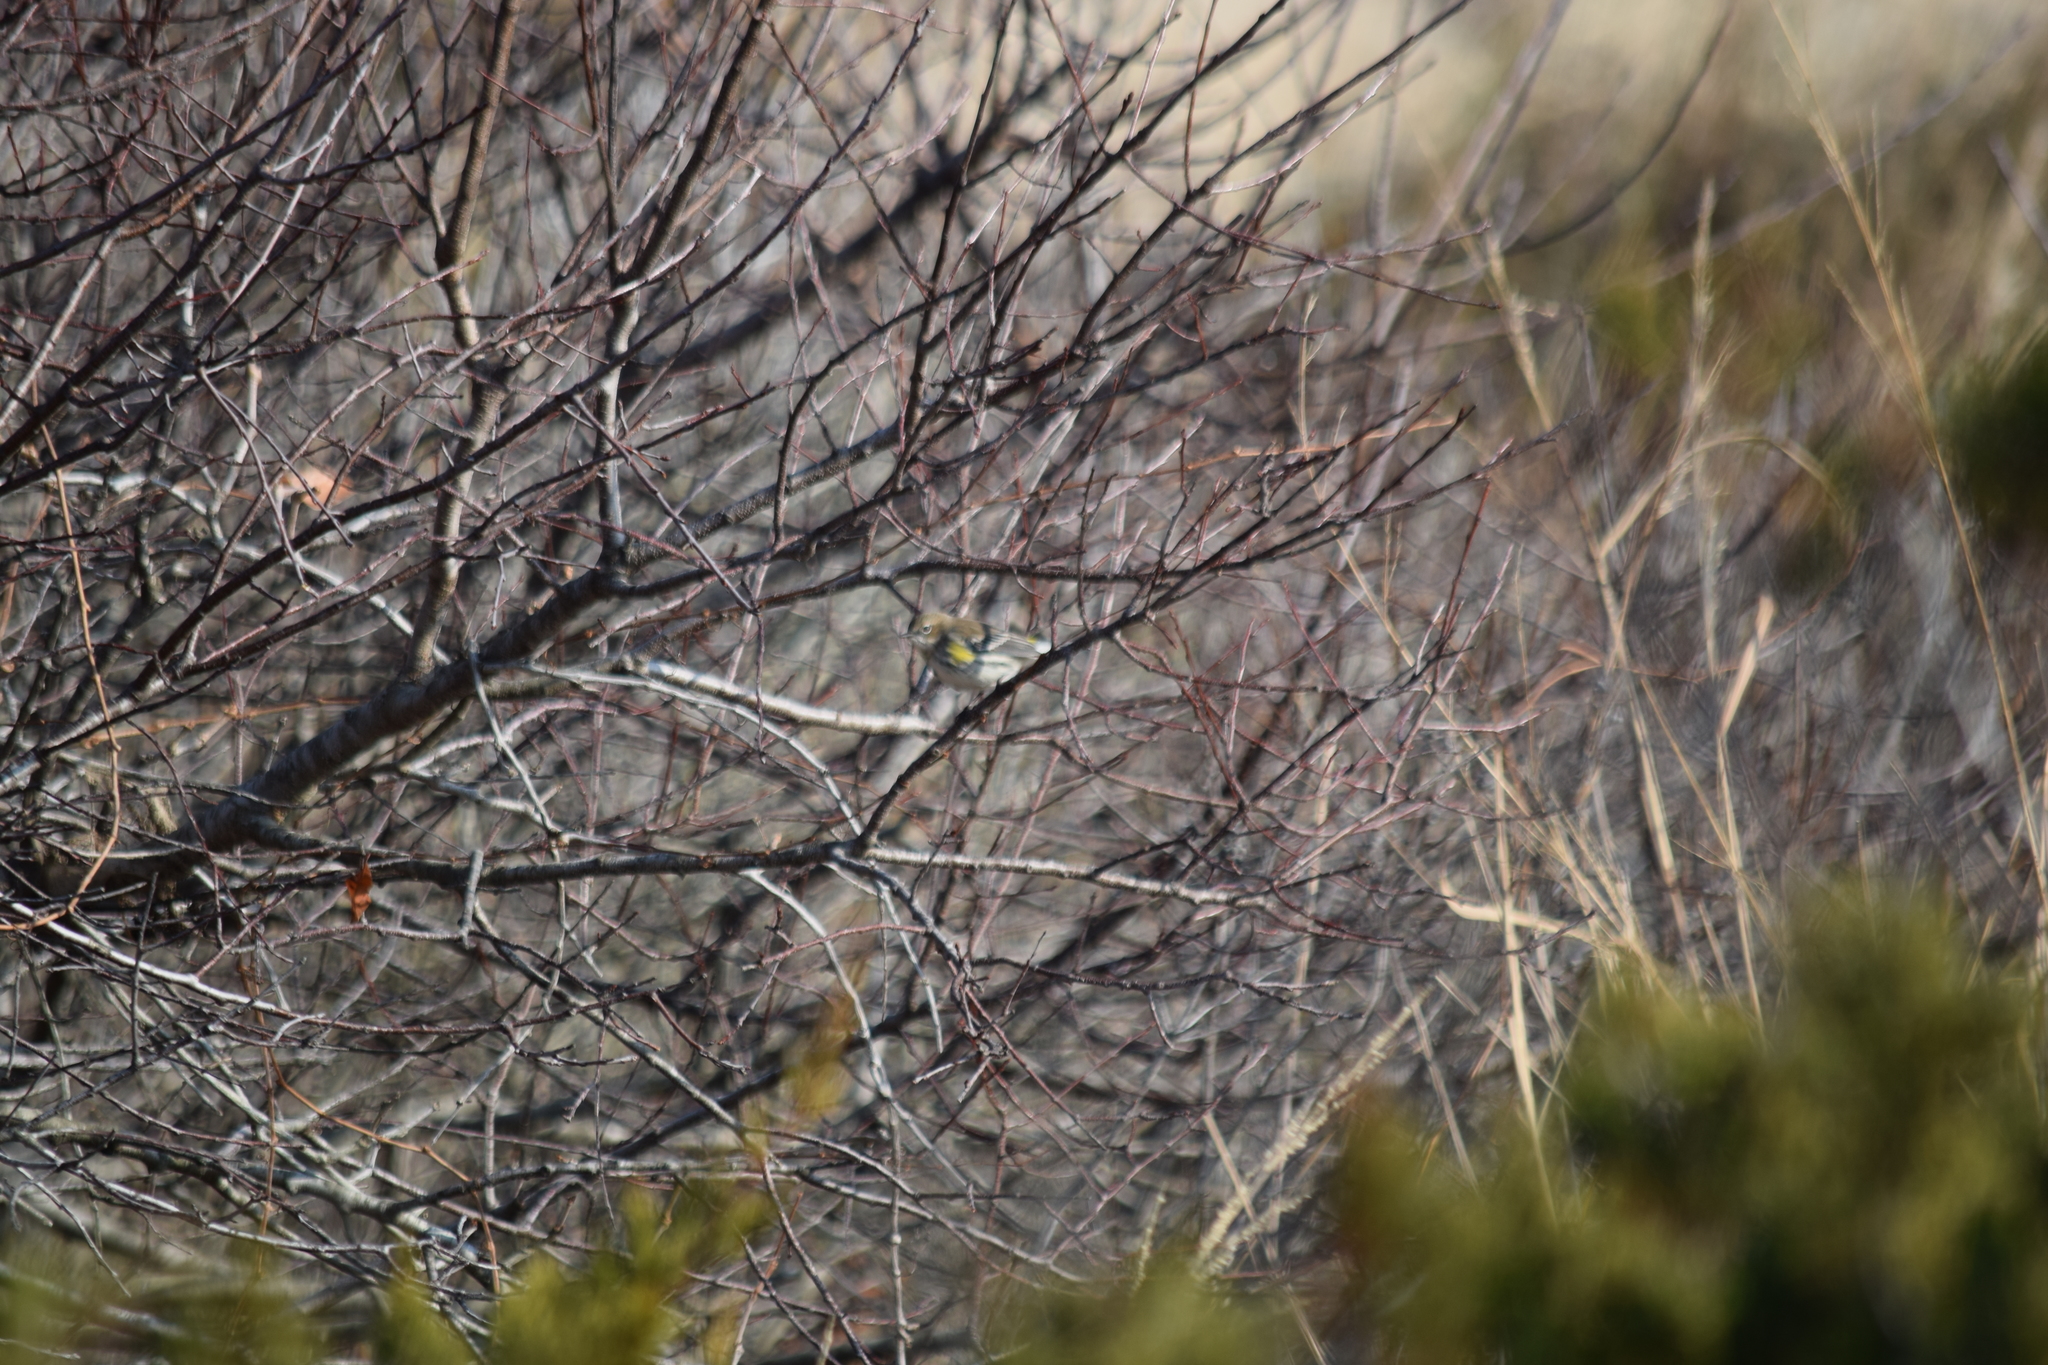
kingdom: Animalia
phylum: Chordata
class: Aves
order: Passeriformes
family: Parulidae
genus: Setophaga
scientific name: Setophaga coronata
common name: Myrtle warbler
